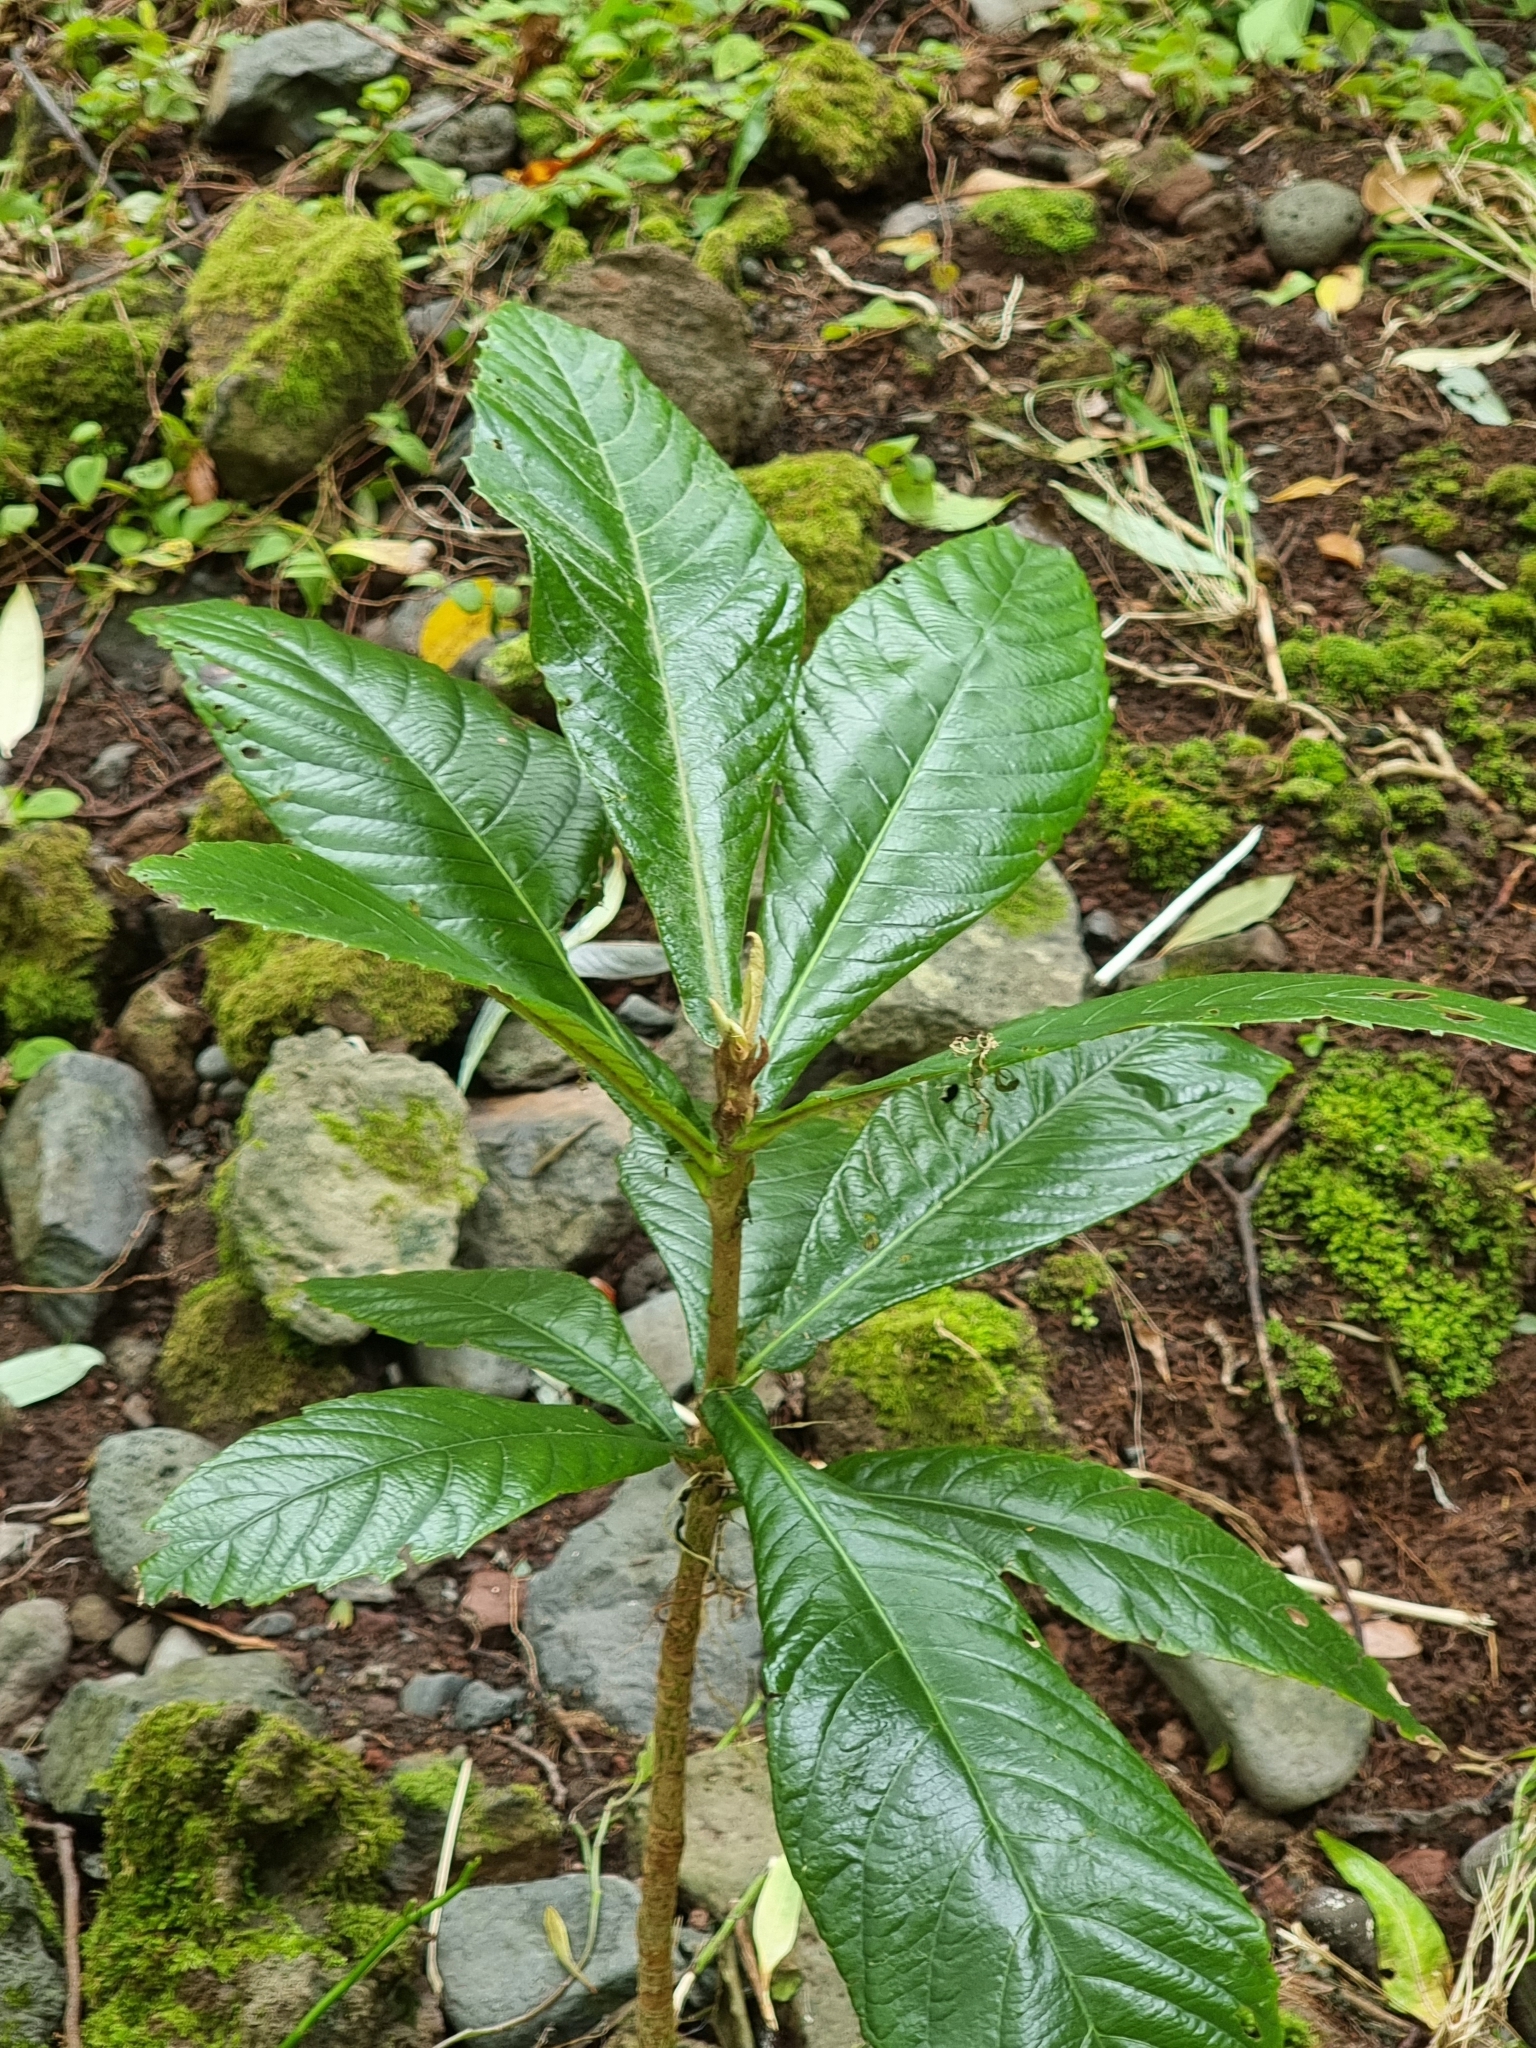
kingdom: Plantae
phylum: Tracheophyta
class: Magnoliopsida
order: Rosales
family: Rosaceae
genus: Rhaphiolepis
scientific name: Rhaphiolepis bibas
